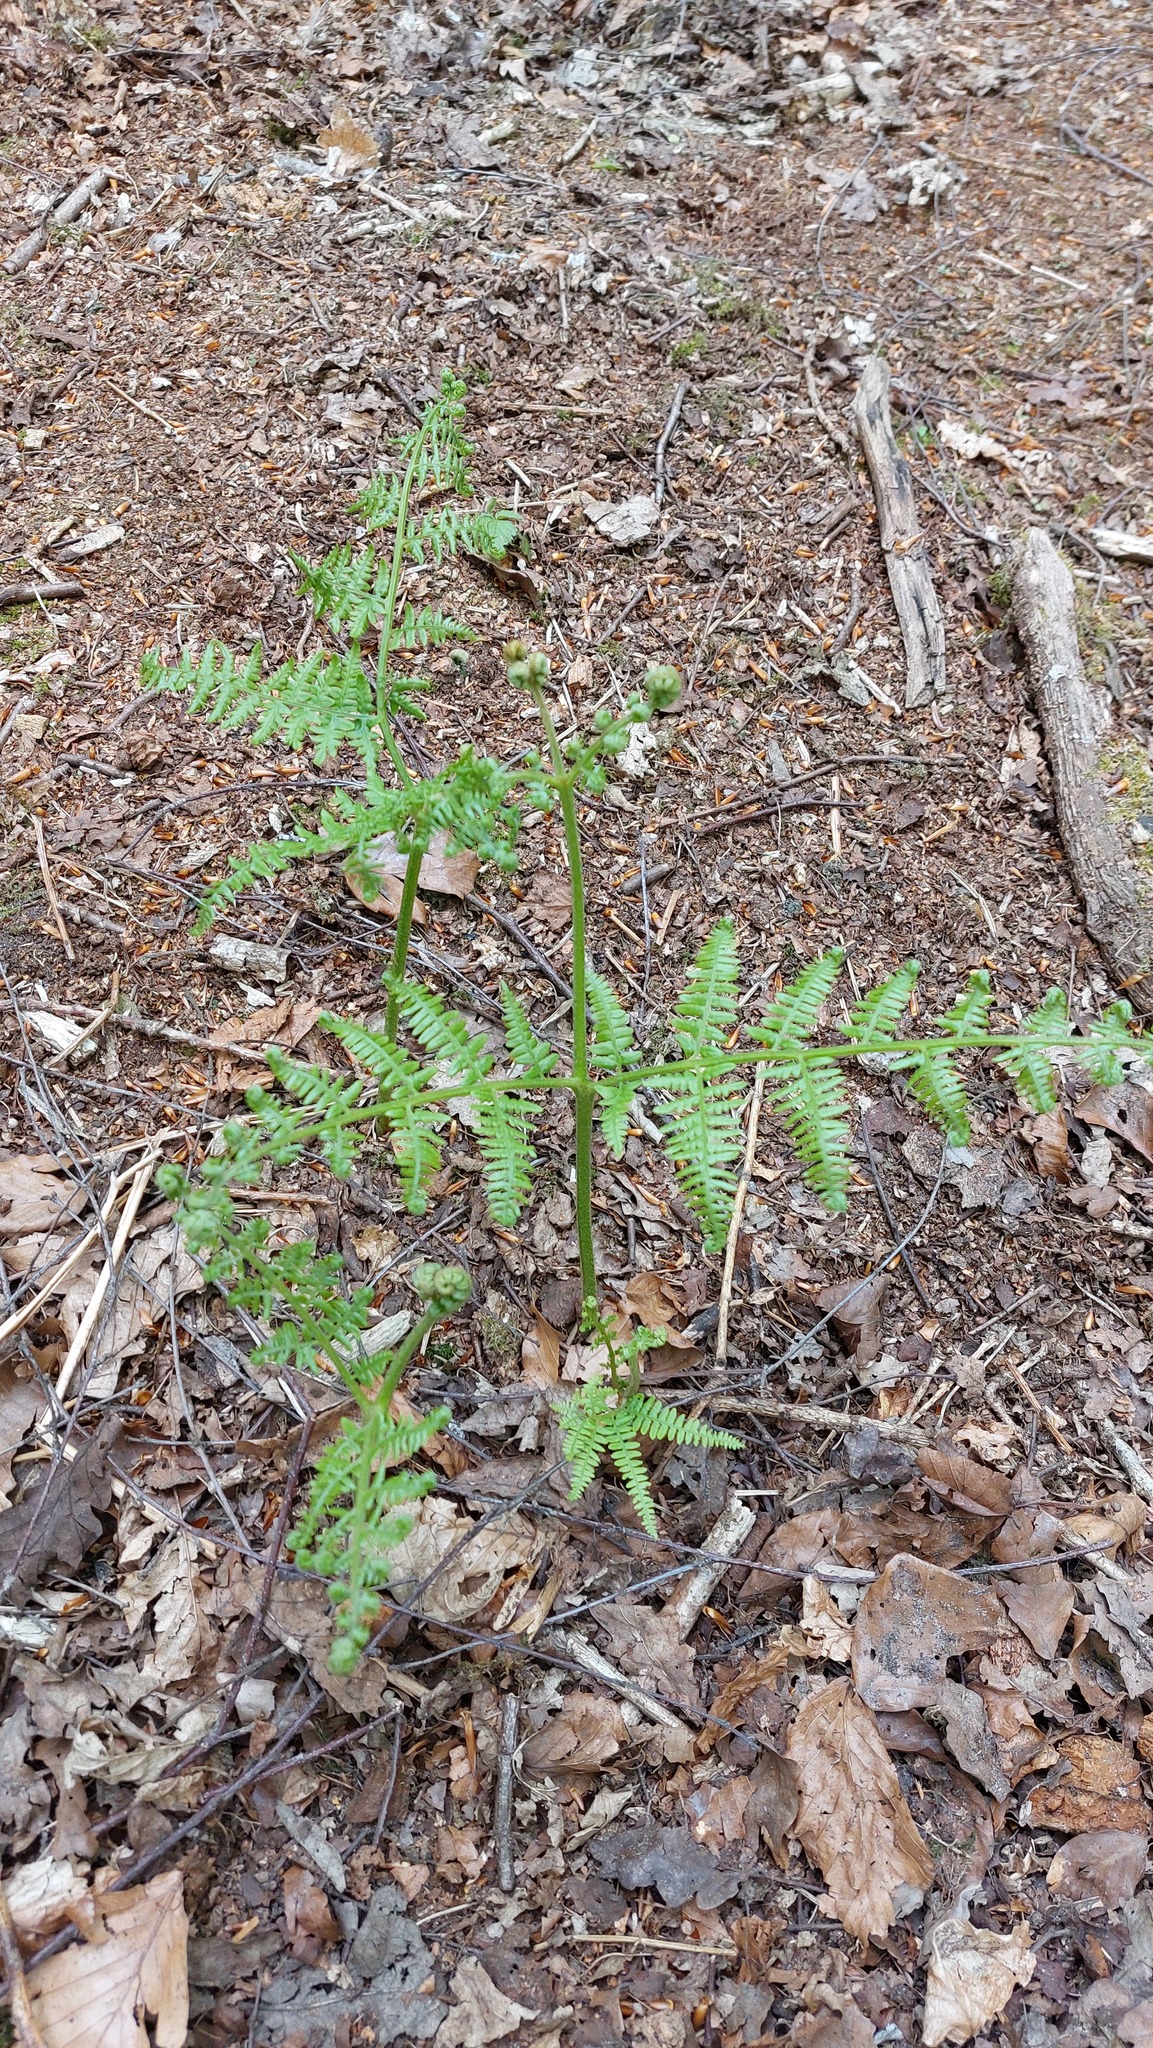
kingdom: Plantae
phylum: Tracheophyta
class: Polypodiopsida
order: Polypodiales
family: Dennstaedtiaceae
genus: Pteridium
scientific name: Pteridium aquilinum
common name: Bracken
